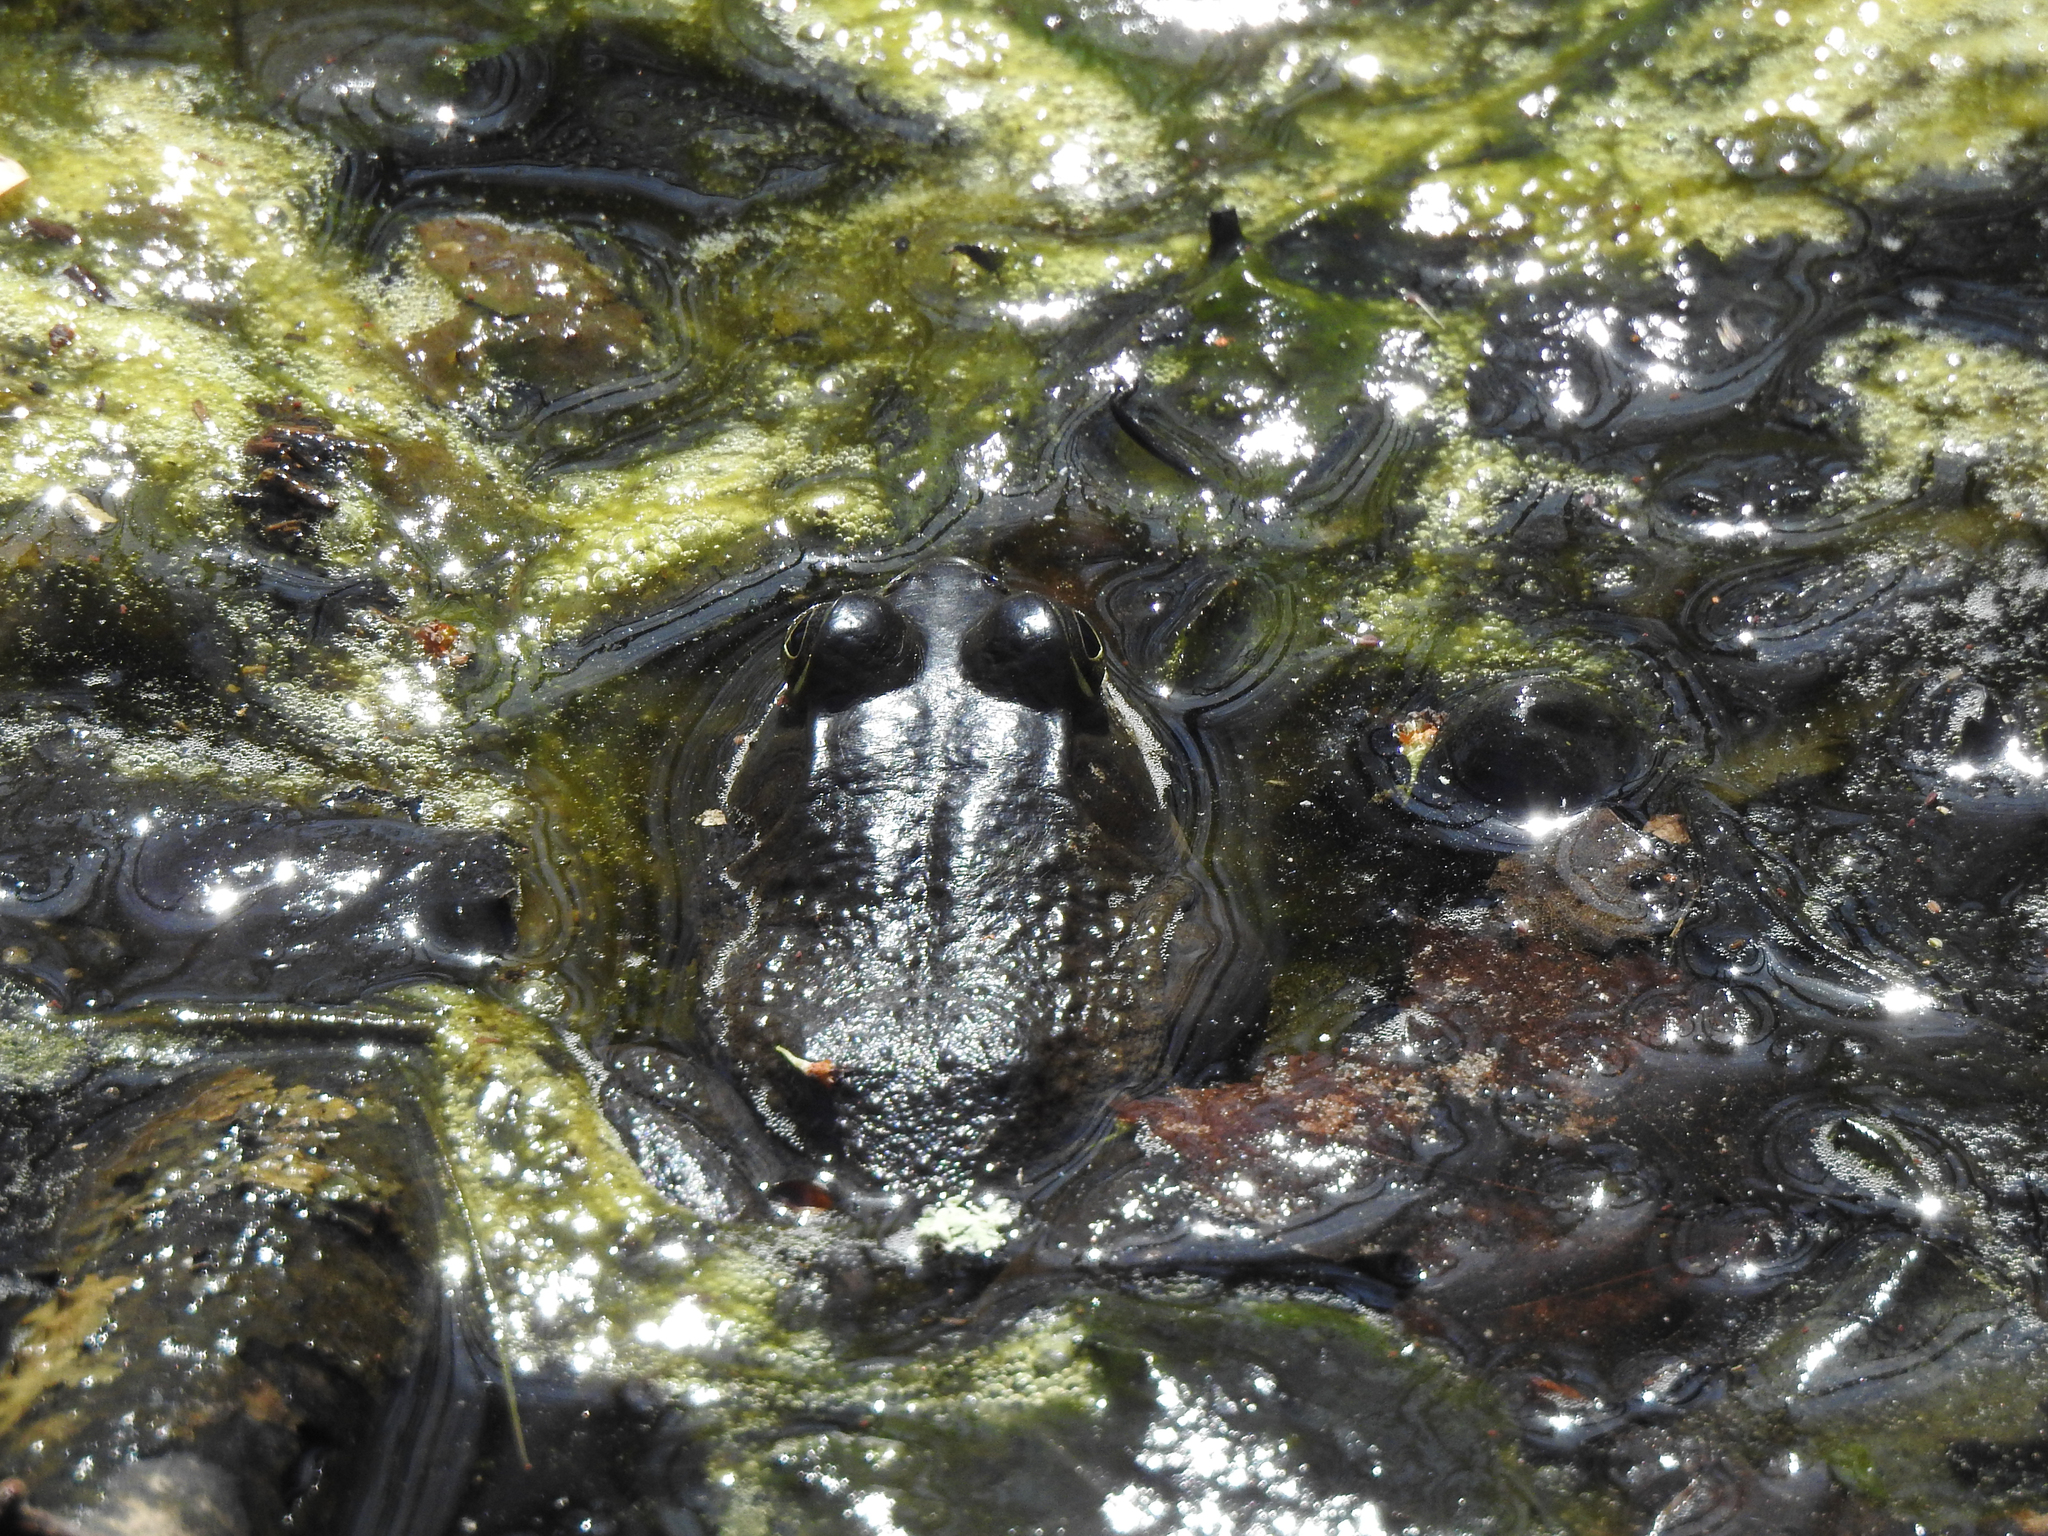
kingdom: Animalia
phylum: Chordata
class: Amphibia
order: Anura
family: Ranidae
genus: Lithobates
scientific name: Lithobates catesbeianus
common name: American bullfrog
